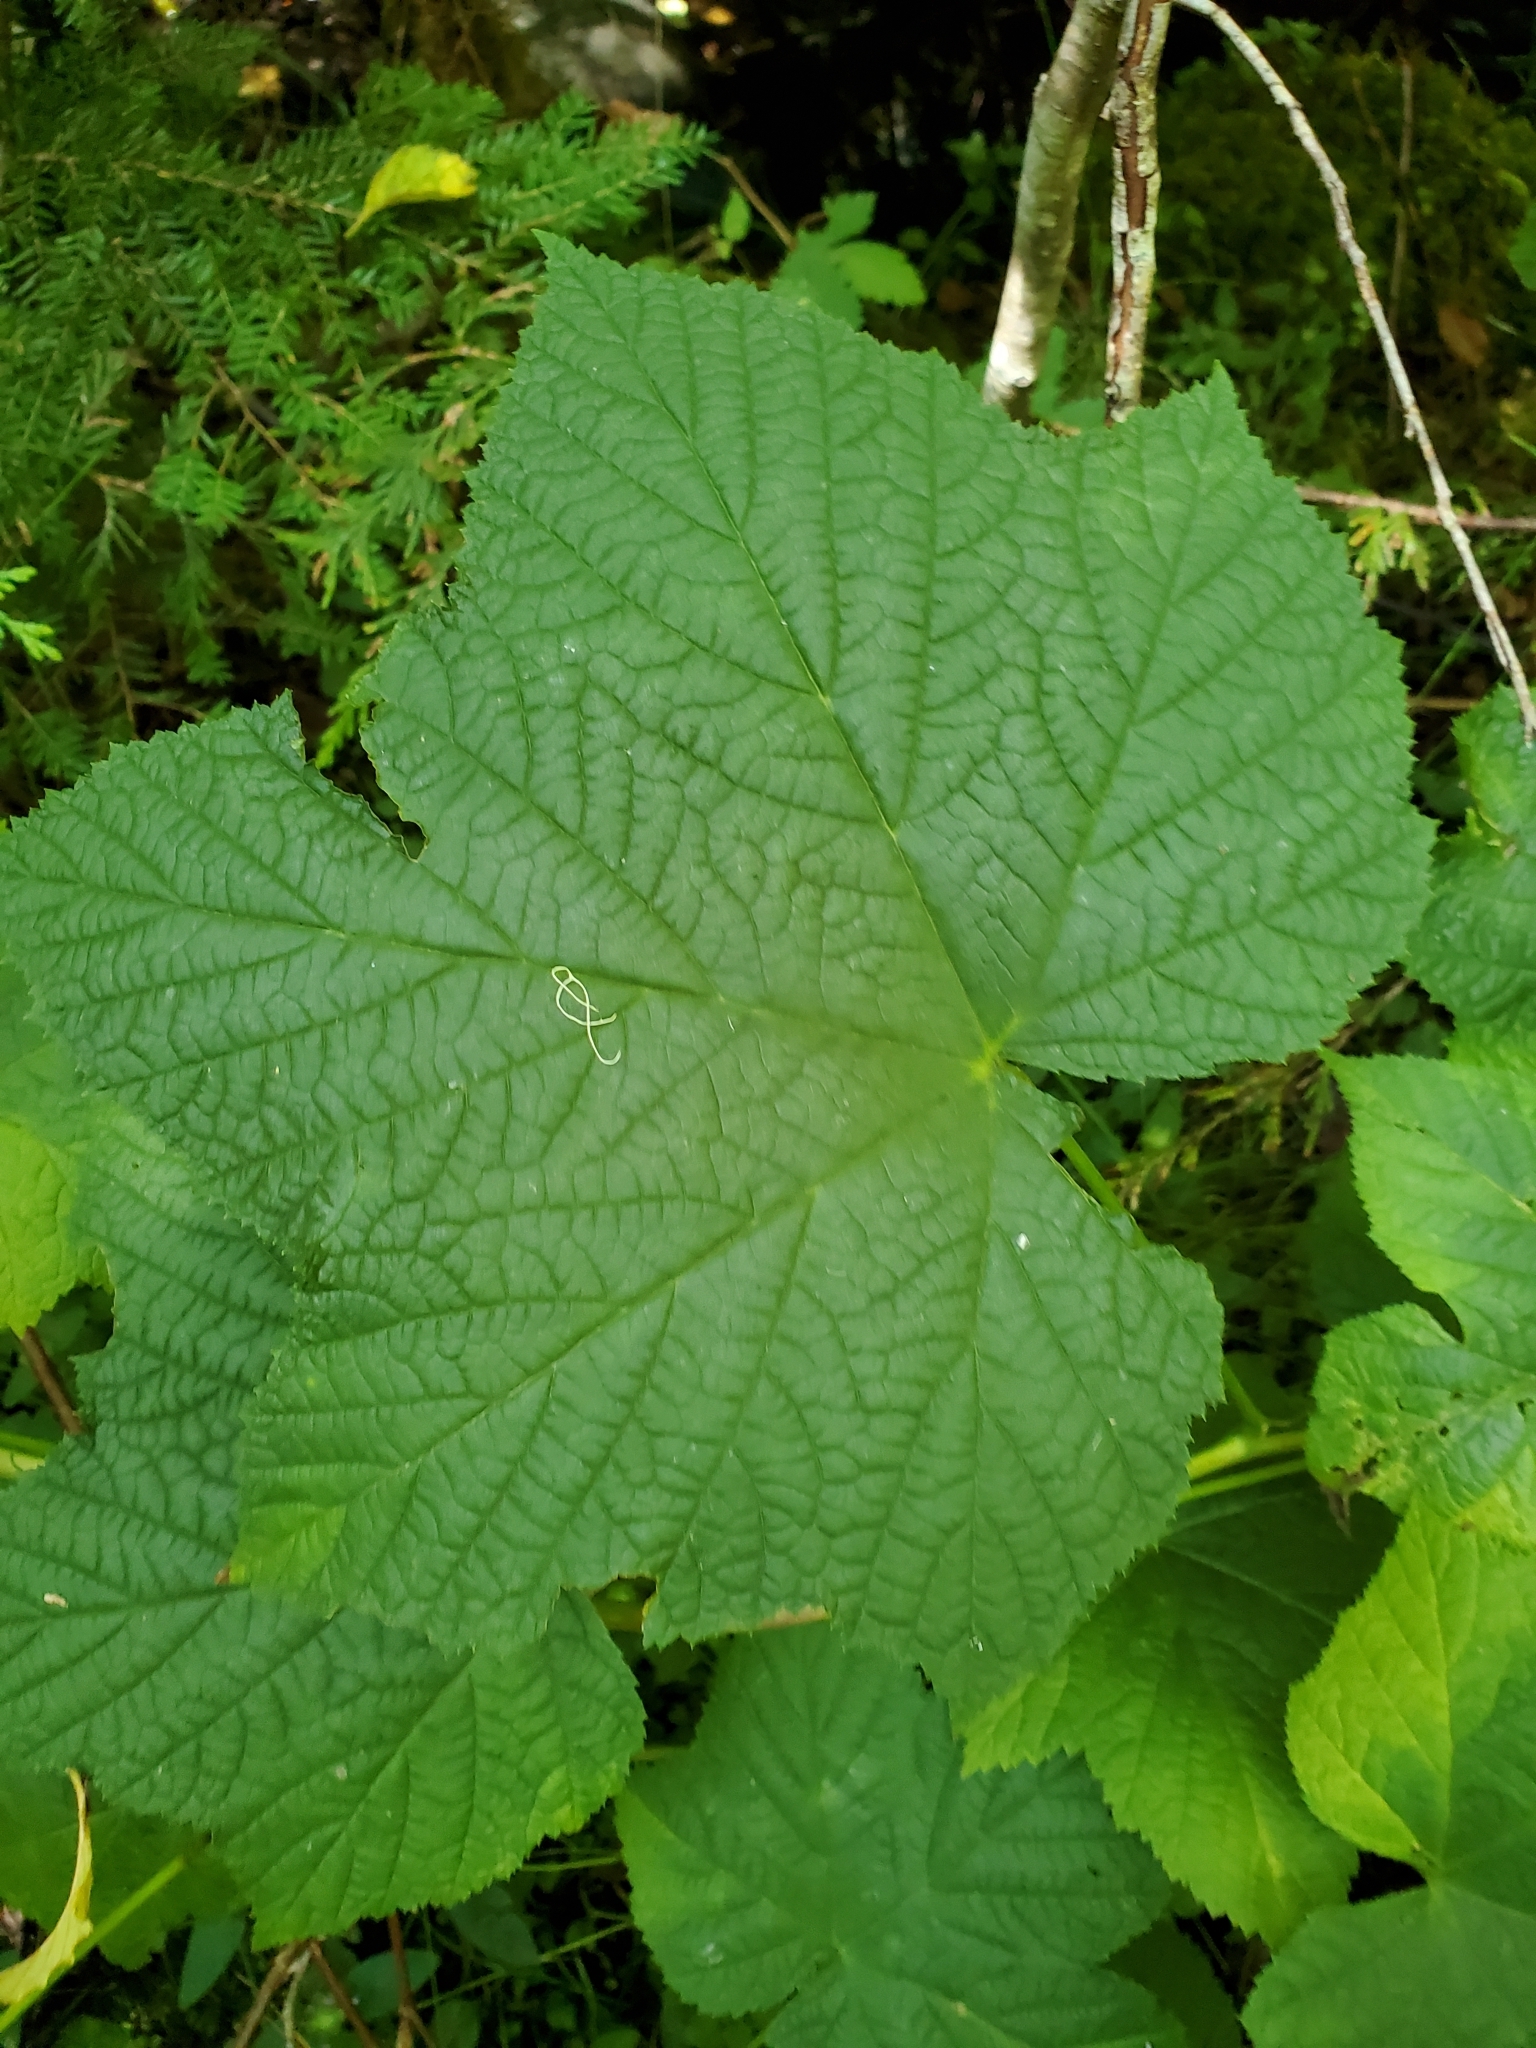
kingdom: Plantae
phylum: Tracheophyta
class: Magnoliopsida
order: Rosales
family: Rosaceae
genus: Rubus
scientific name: Rubus parviflorus
